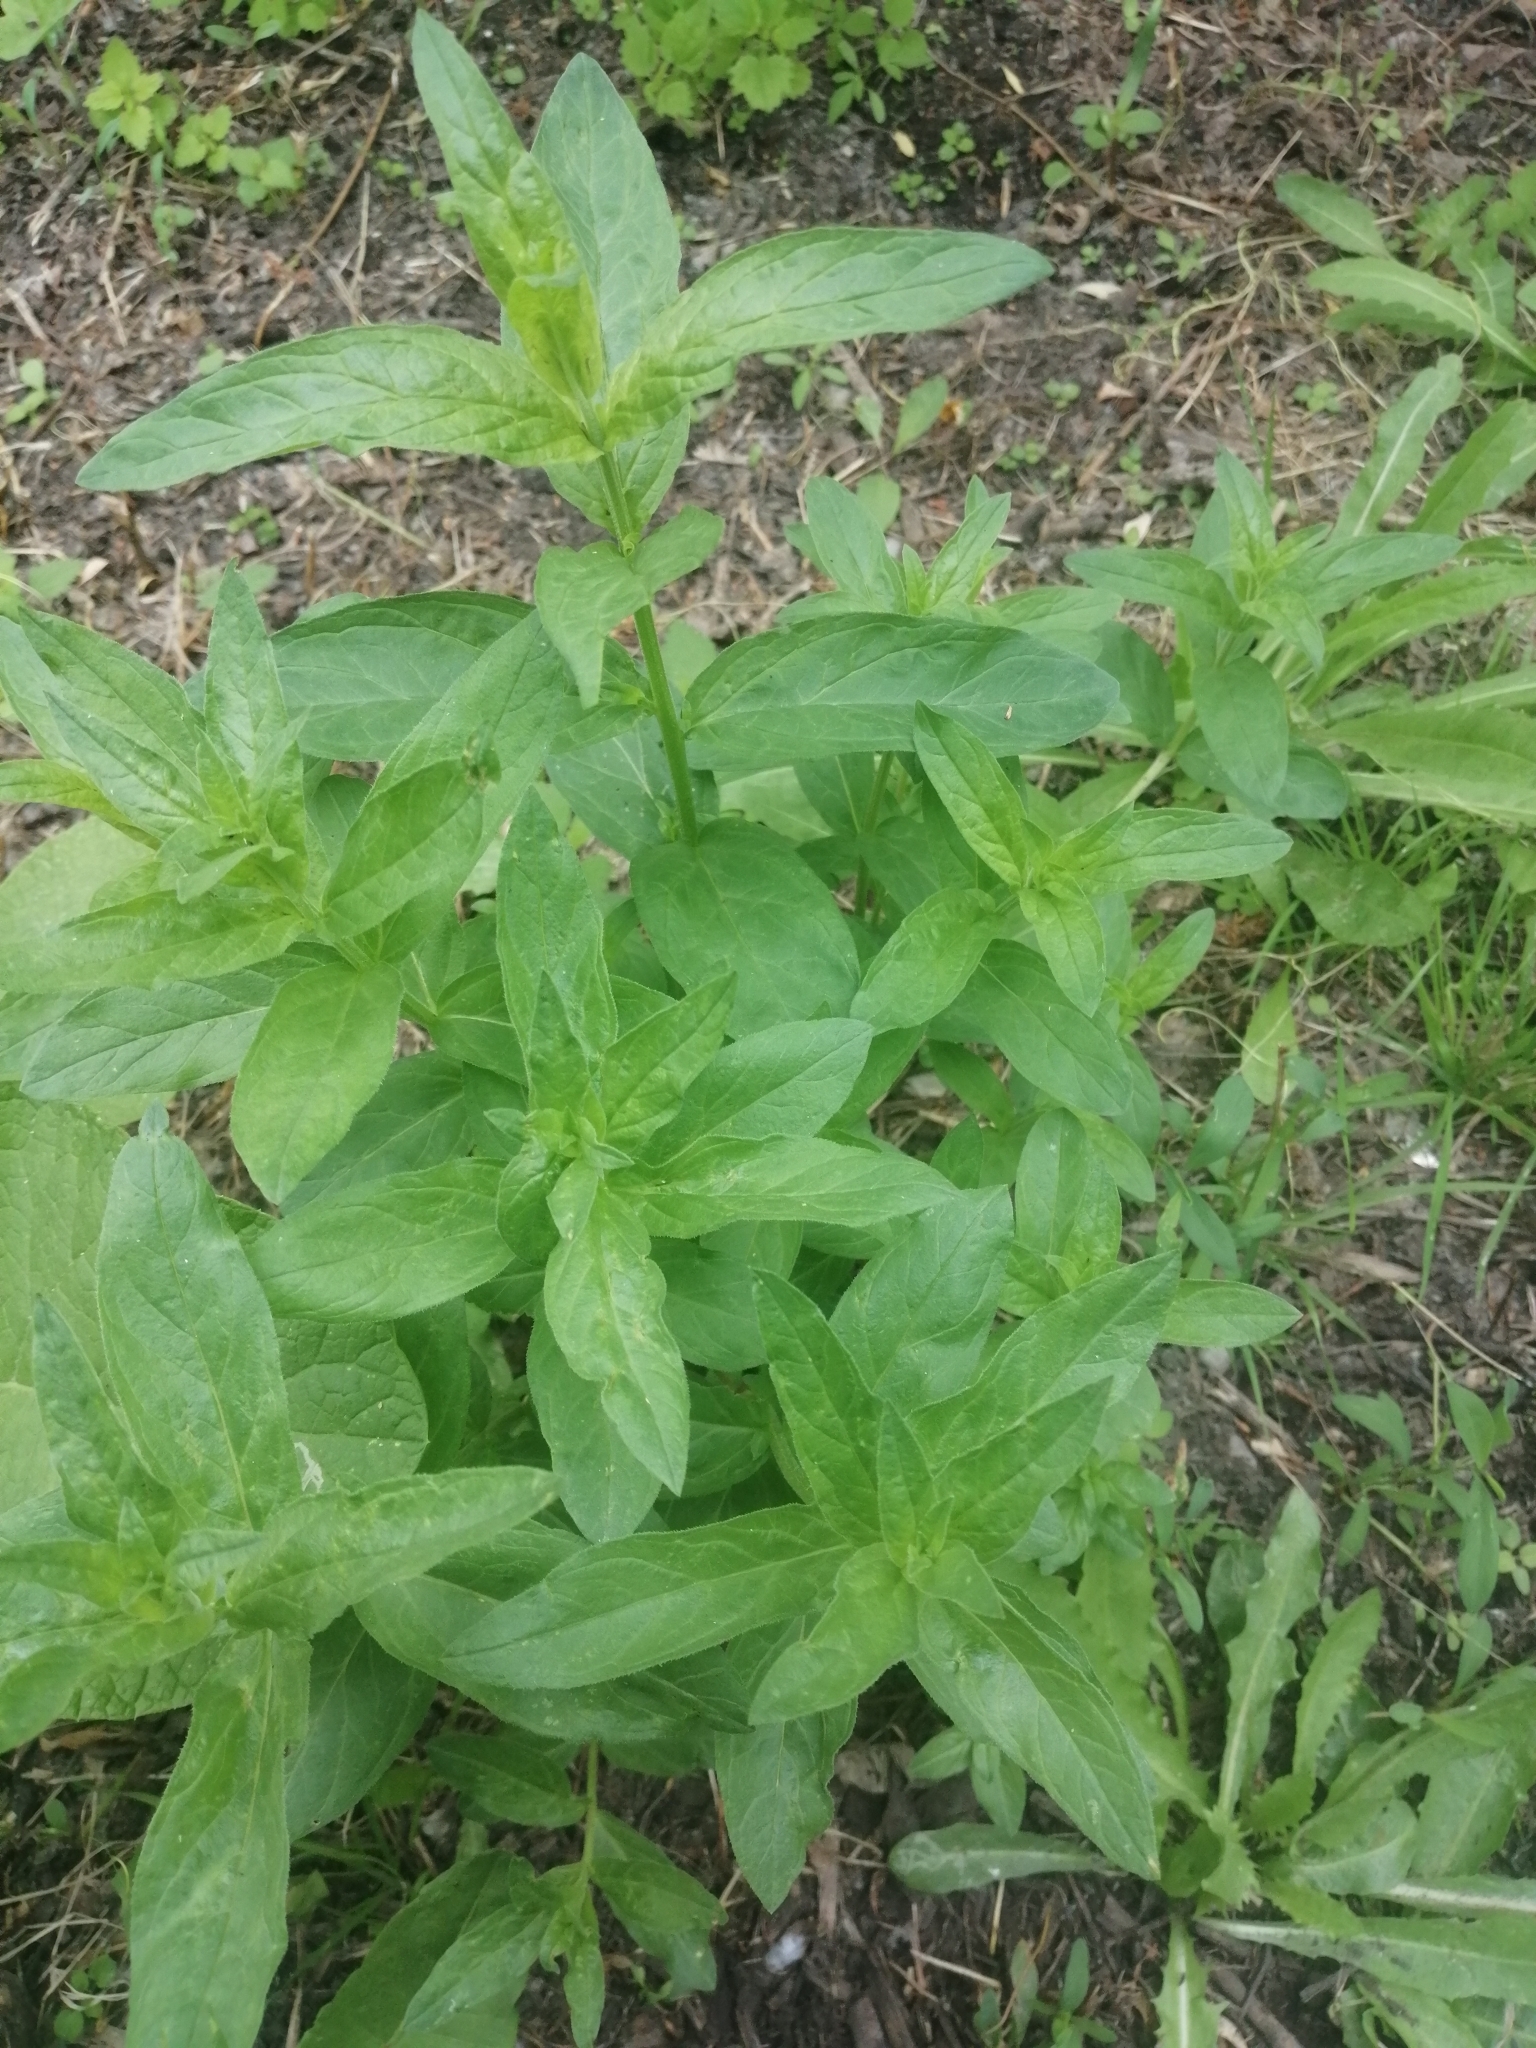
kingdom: Plantae
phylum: Tracheophyta
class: Magnoliopsida
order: Myrtales
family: Lythraceae
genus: Lythrum
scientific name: Lythrum salicaria
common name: Purple loosestrife
